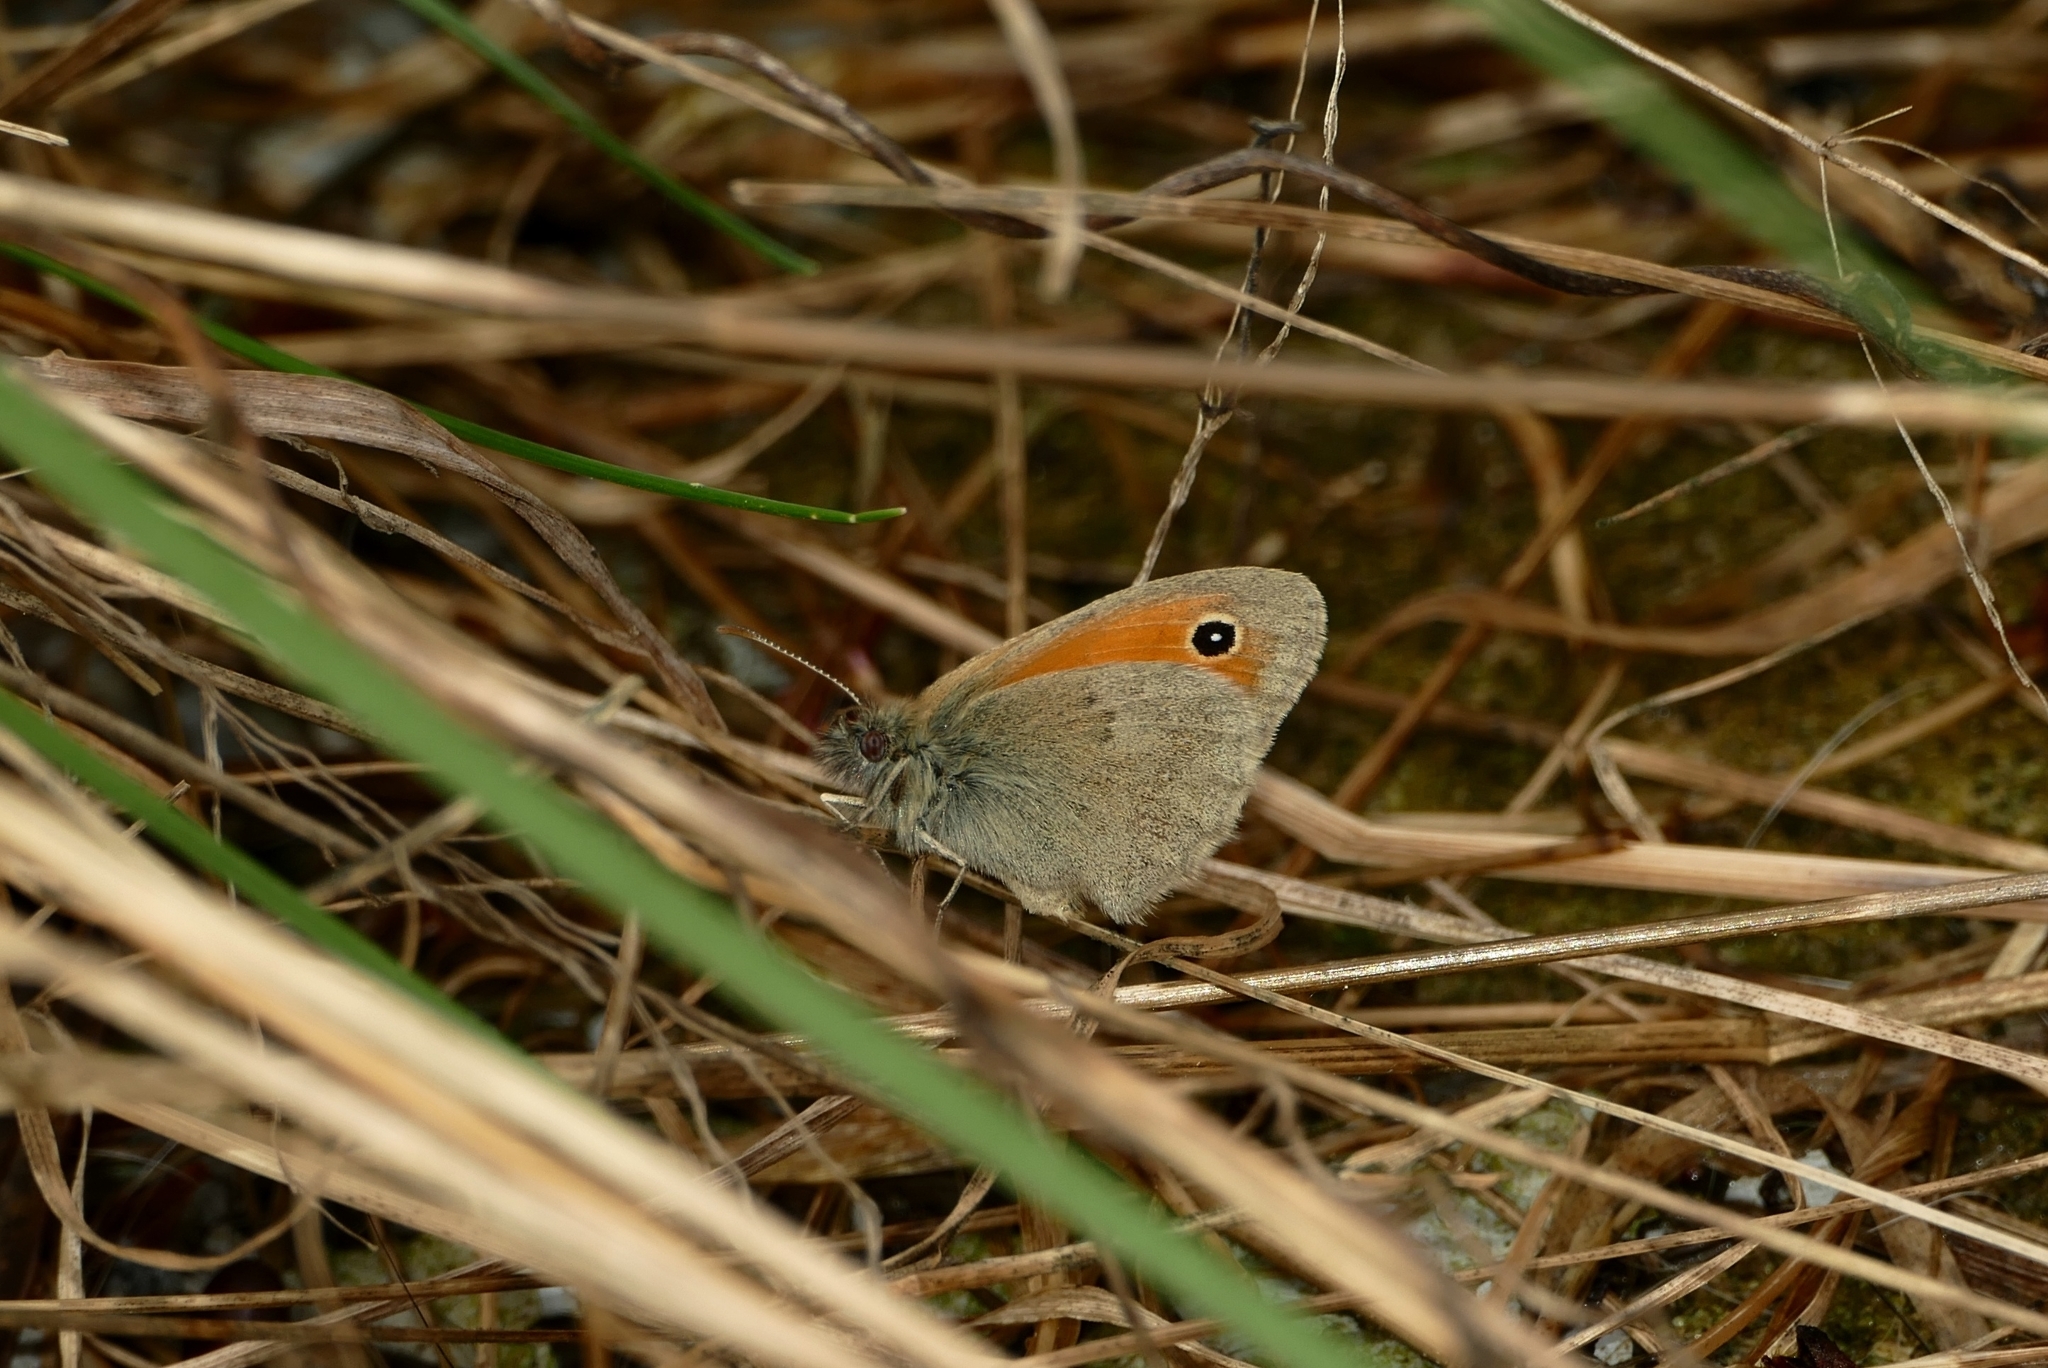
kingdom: Animalia
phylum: Arthropoda
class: Insecta
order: Lepidoptera
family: Nymphalidae
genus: Coenonympha
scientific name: Coenonympha pamphilus
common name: Small heath
